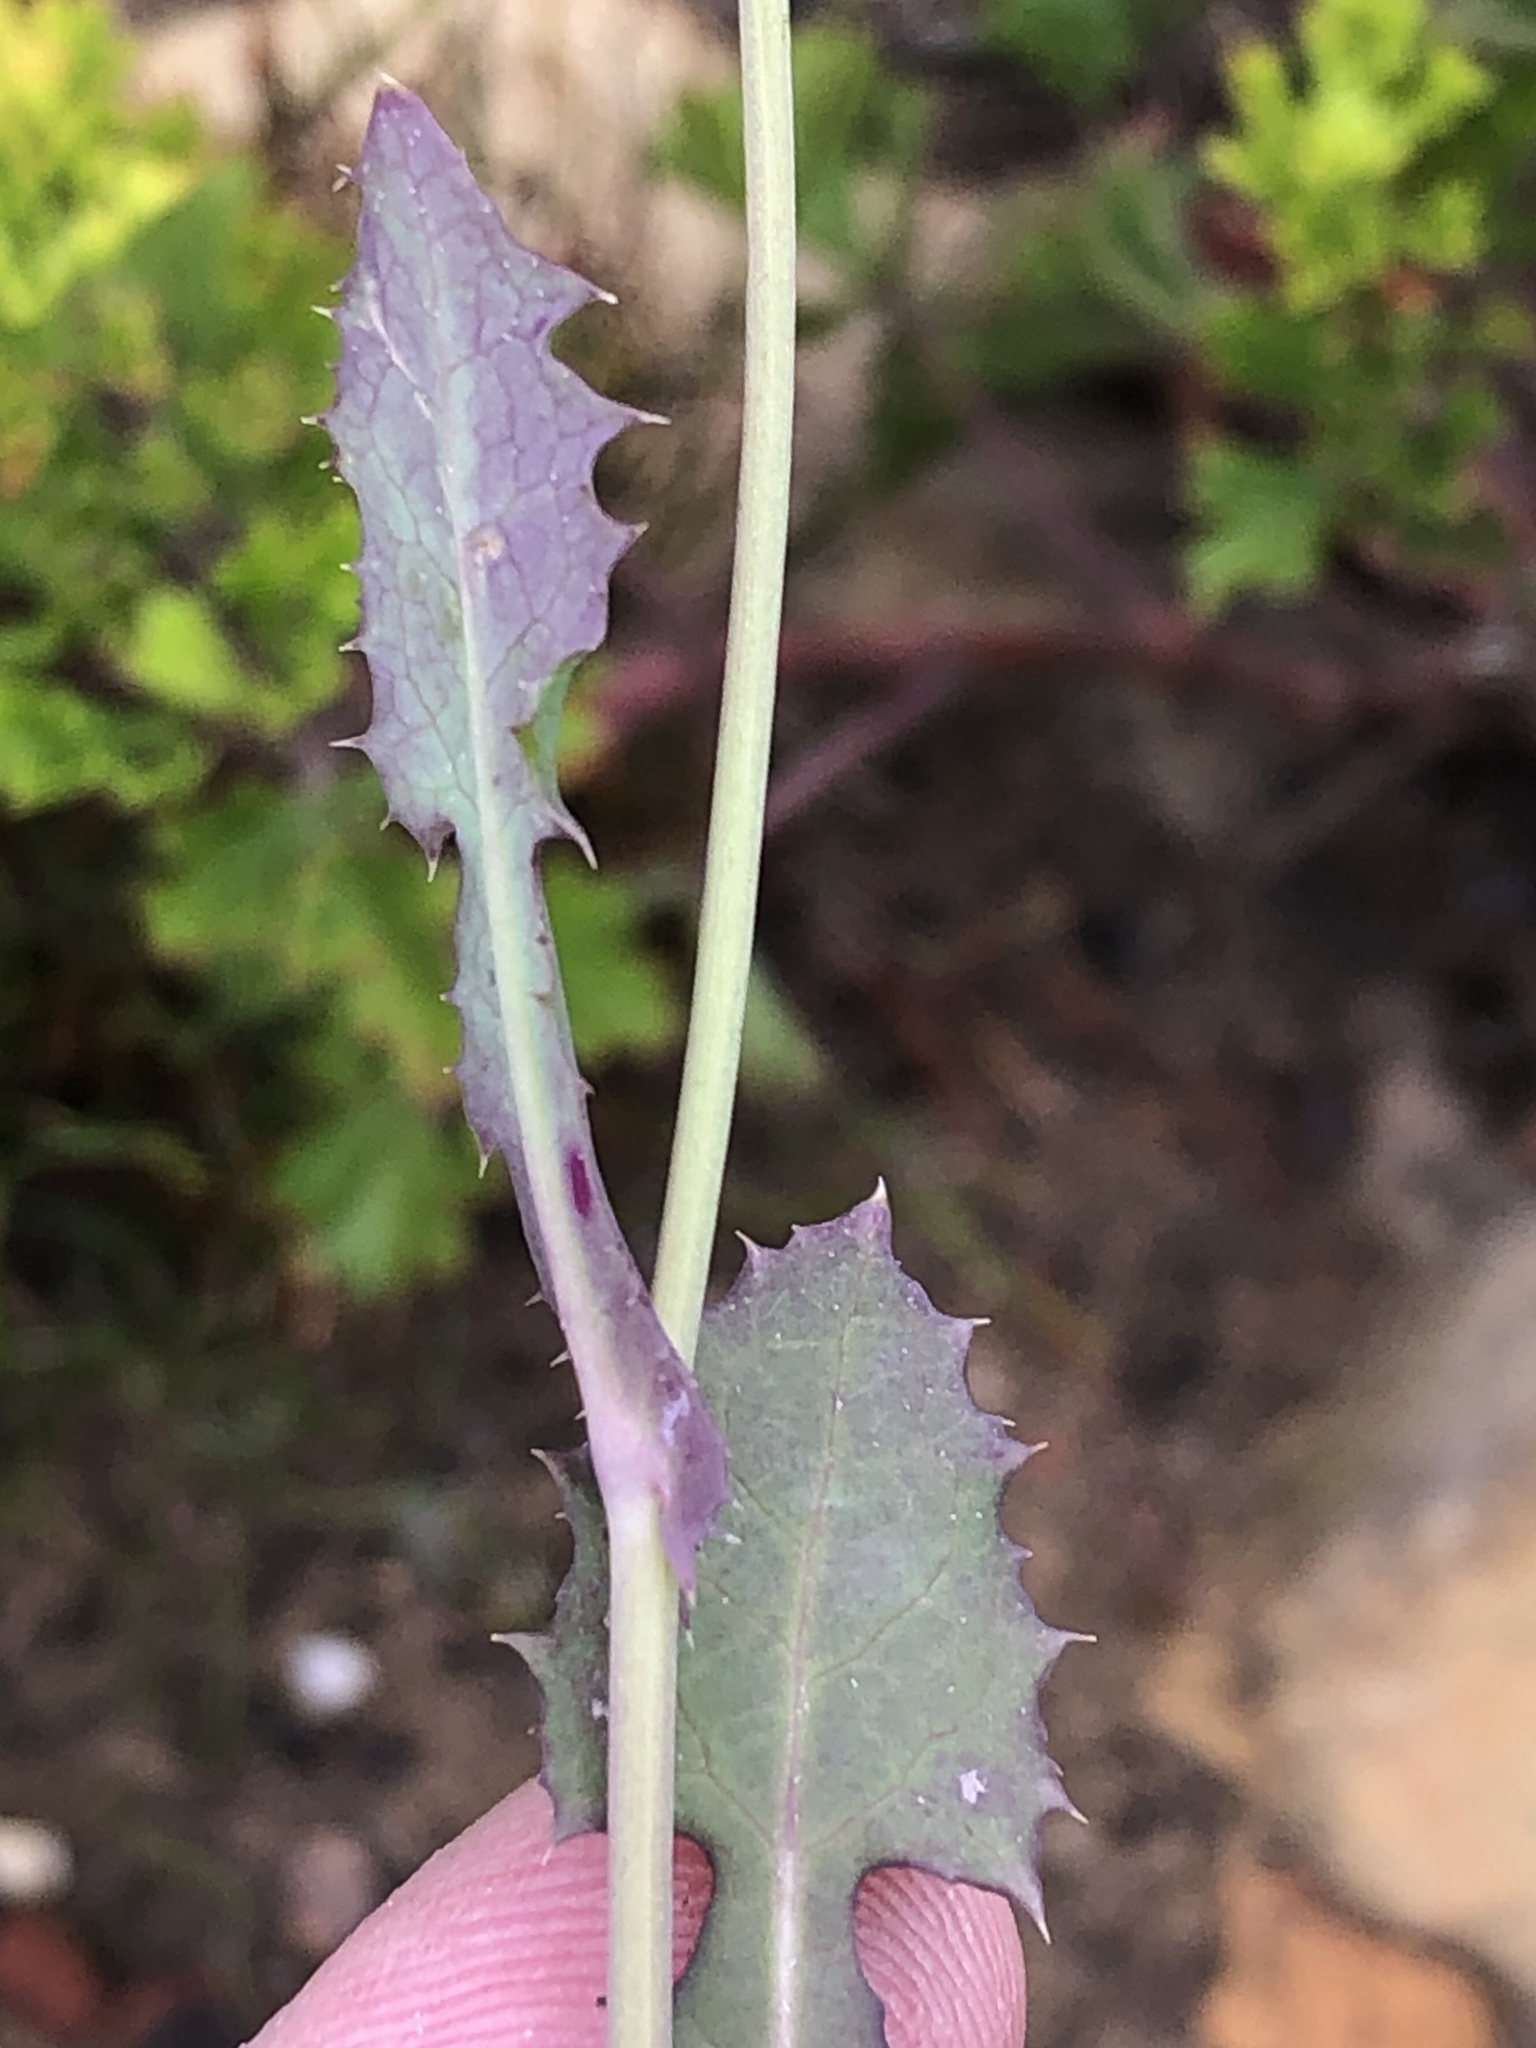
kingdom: Plantae
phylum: Tracheophyta
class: Magnoliopsida
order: Asterales
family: Asteraceae
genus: Sonchus
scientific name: Sonchus oleraceus
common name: Common sowthistle
